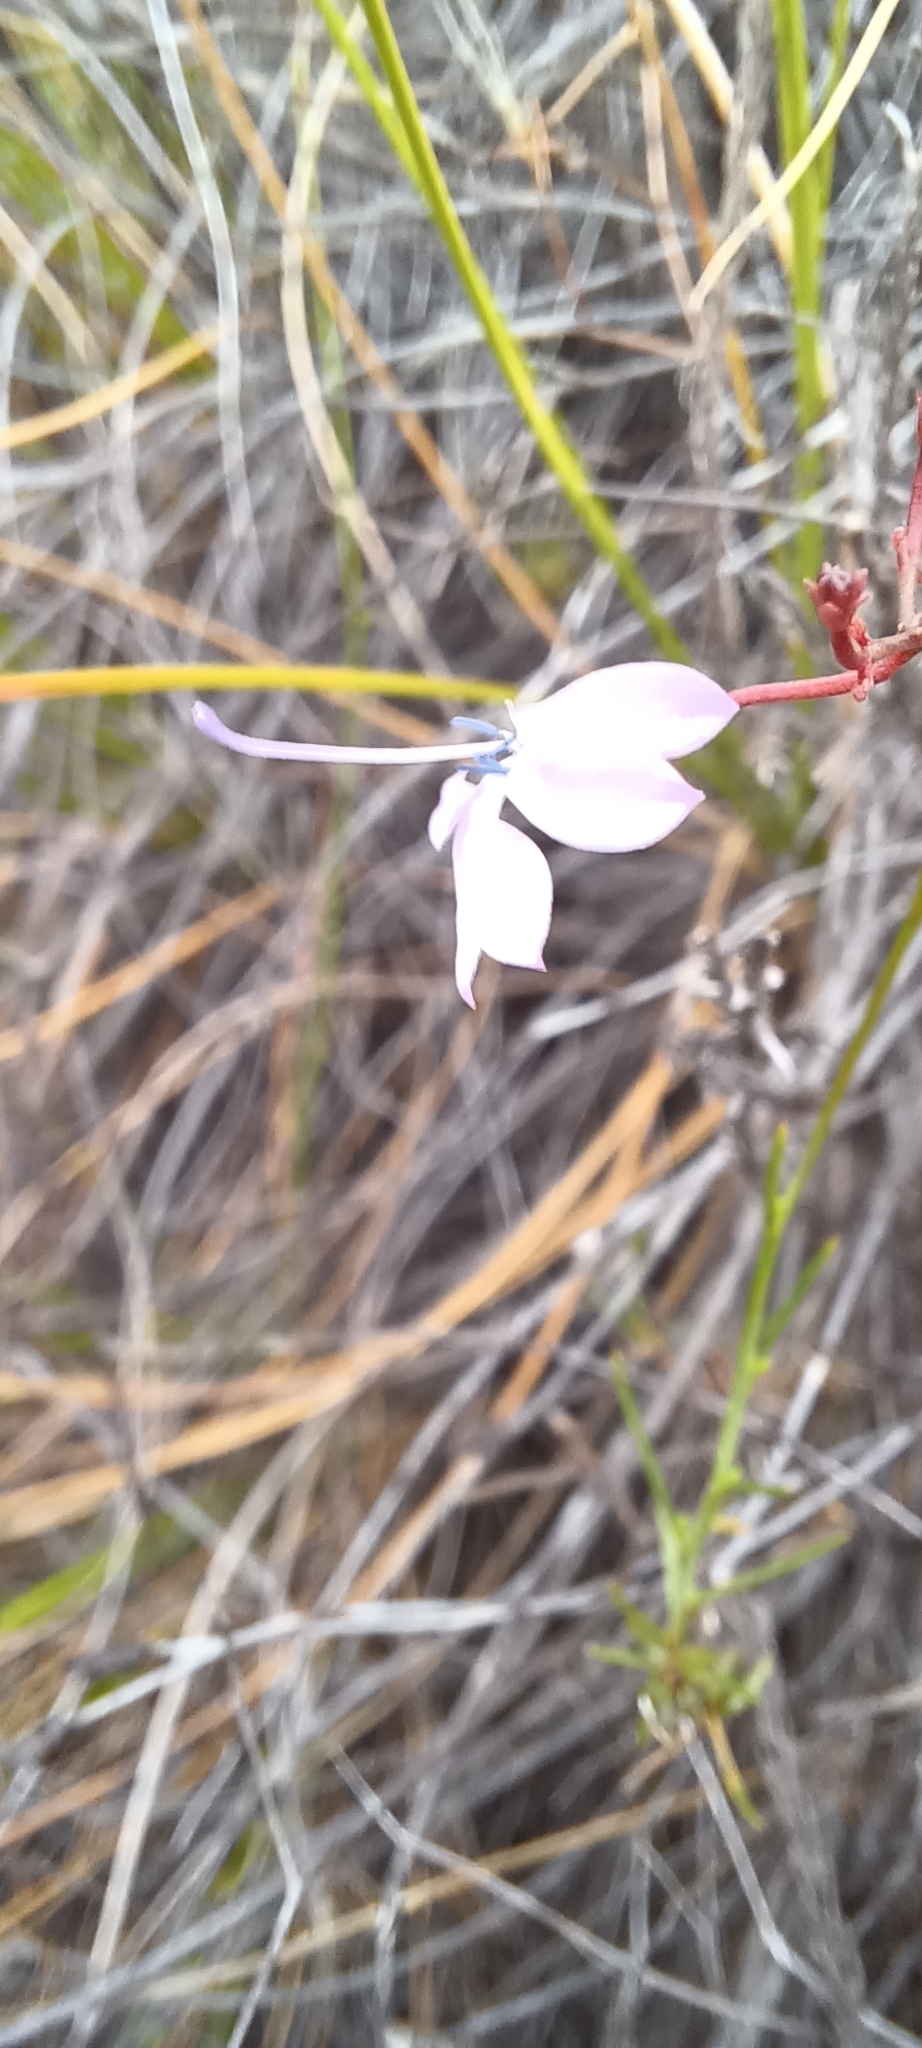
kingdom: Plantae
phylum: Tracheophyta
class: Magnoliopsida
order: Asterales
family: Campanulaceae
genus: Prismatocarpus
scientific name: Prismatocarpus diffusus
